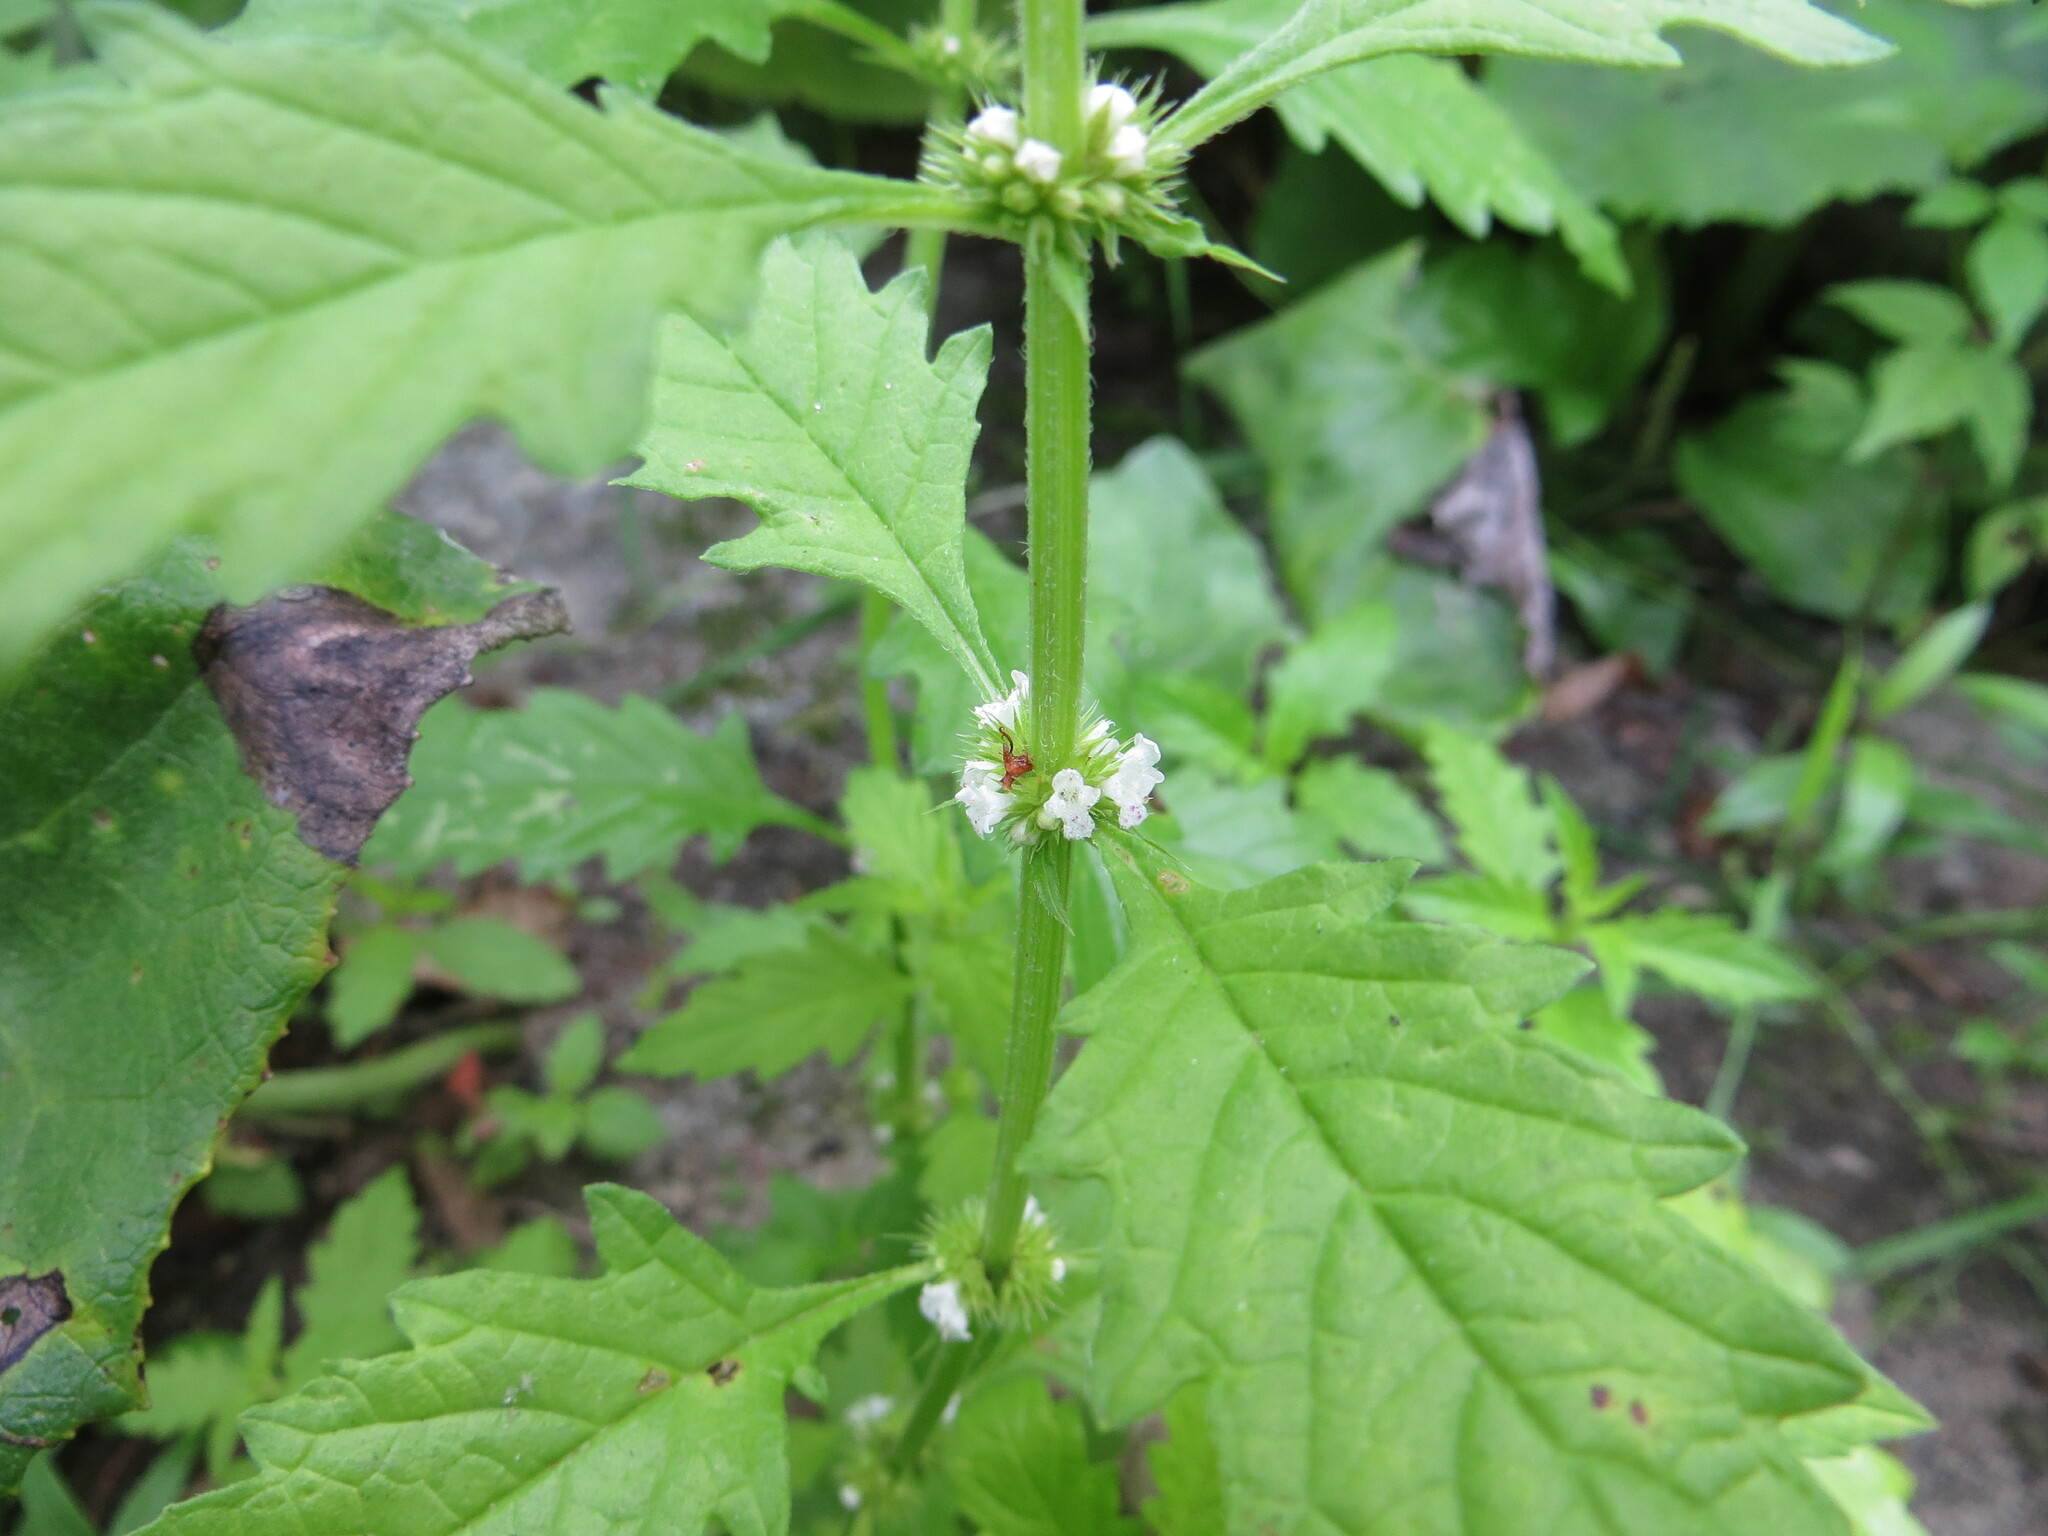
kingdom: Plantae
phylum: Tracheophyta
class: Magnoliopsida
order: Lamiales
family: Lamiaceae
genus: Lycopus
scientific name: Lycopus europaeus
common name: European bugleweed
